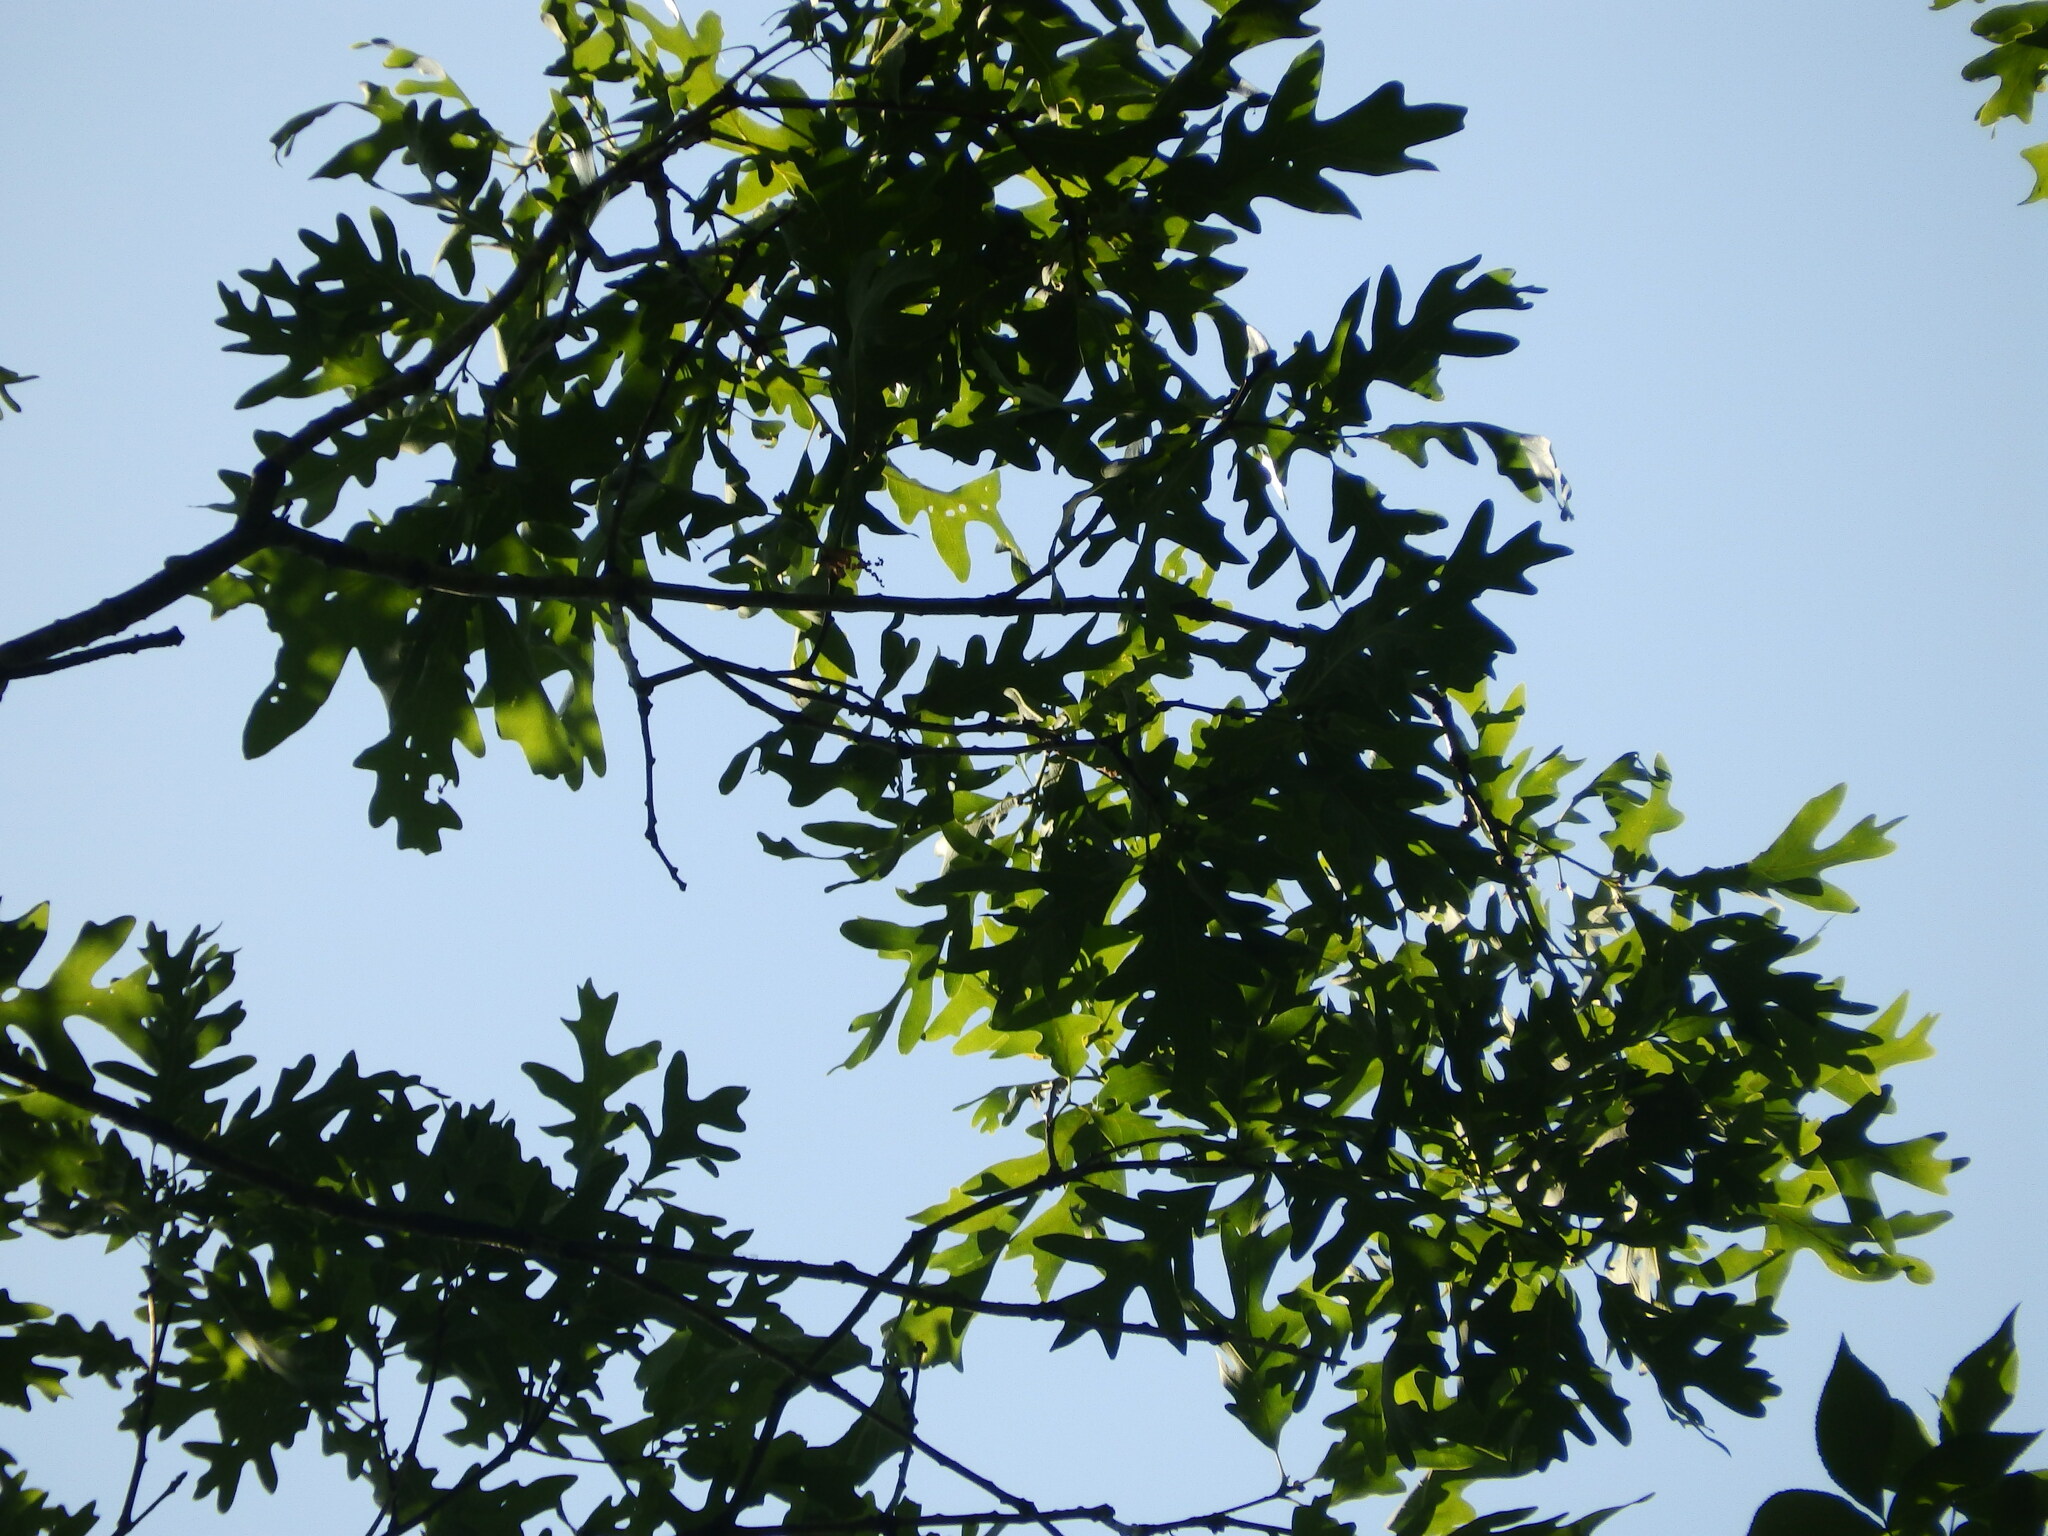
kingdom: Plantae
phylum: Tracheophyta
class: Magnoliopsida
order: Fagales
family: Fagaceae
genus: Quercus
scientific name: Quercus alba
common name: White oak
